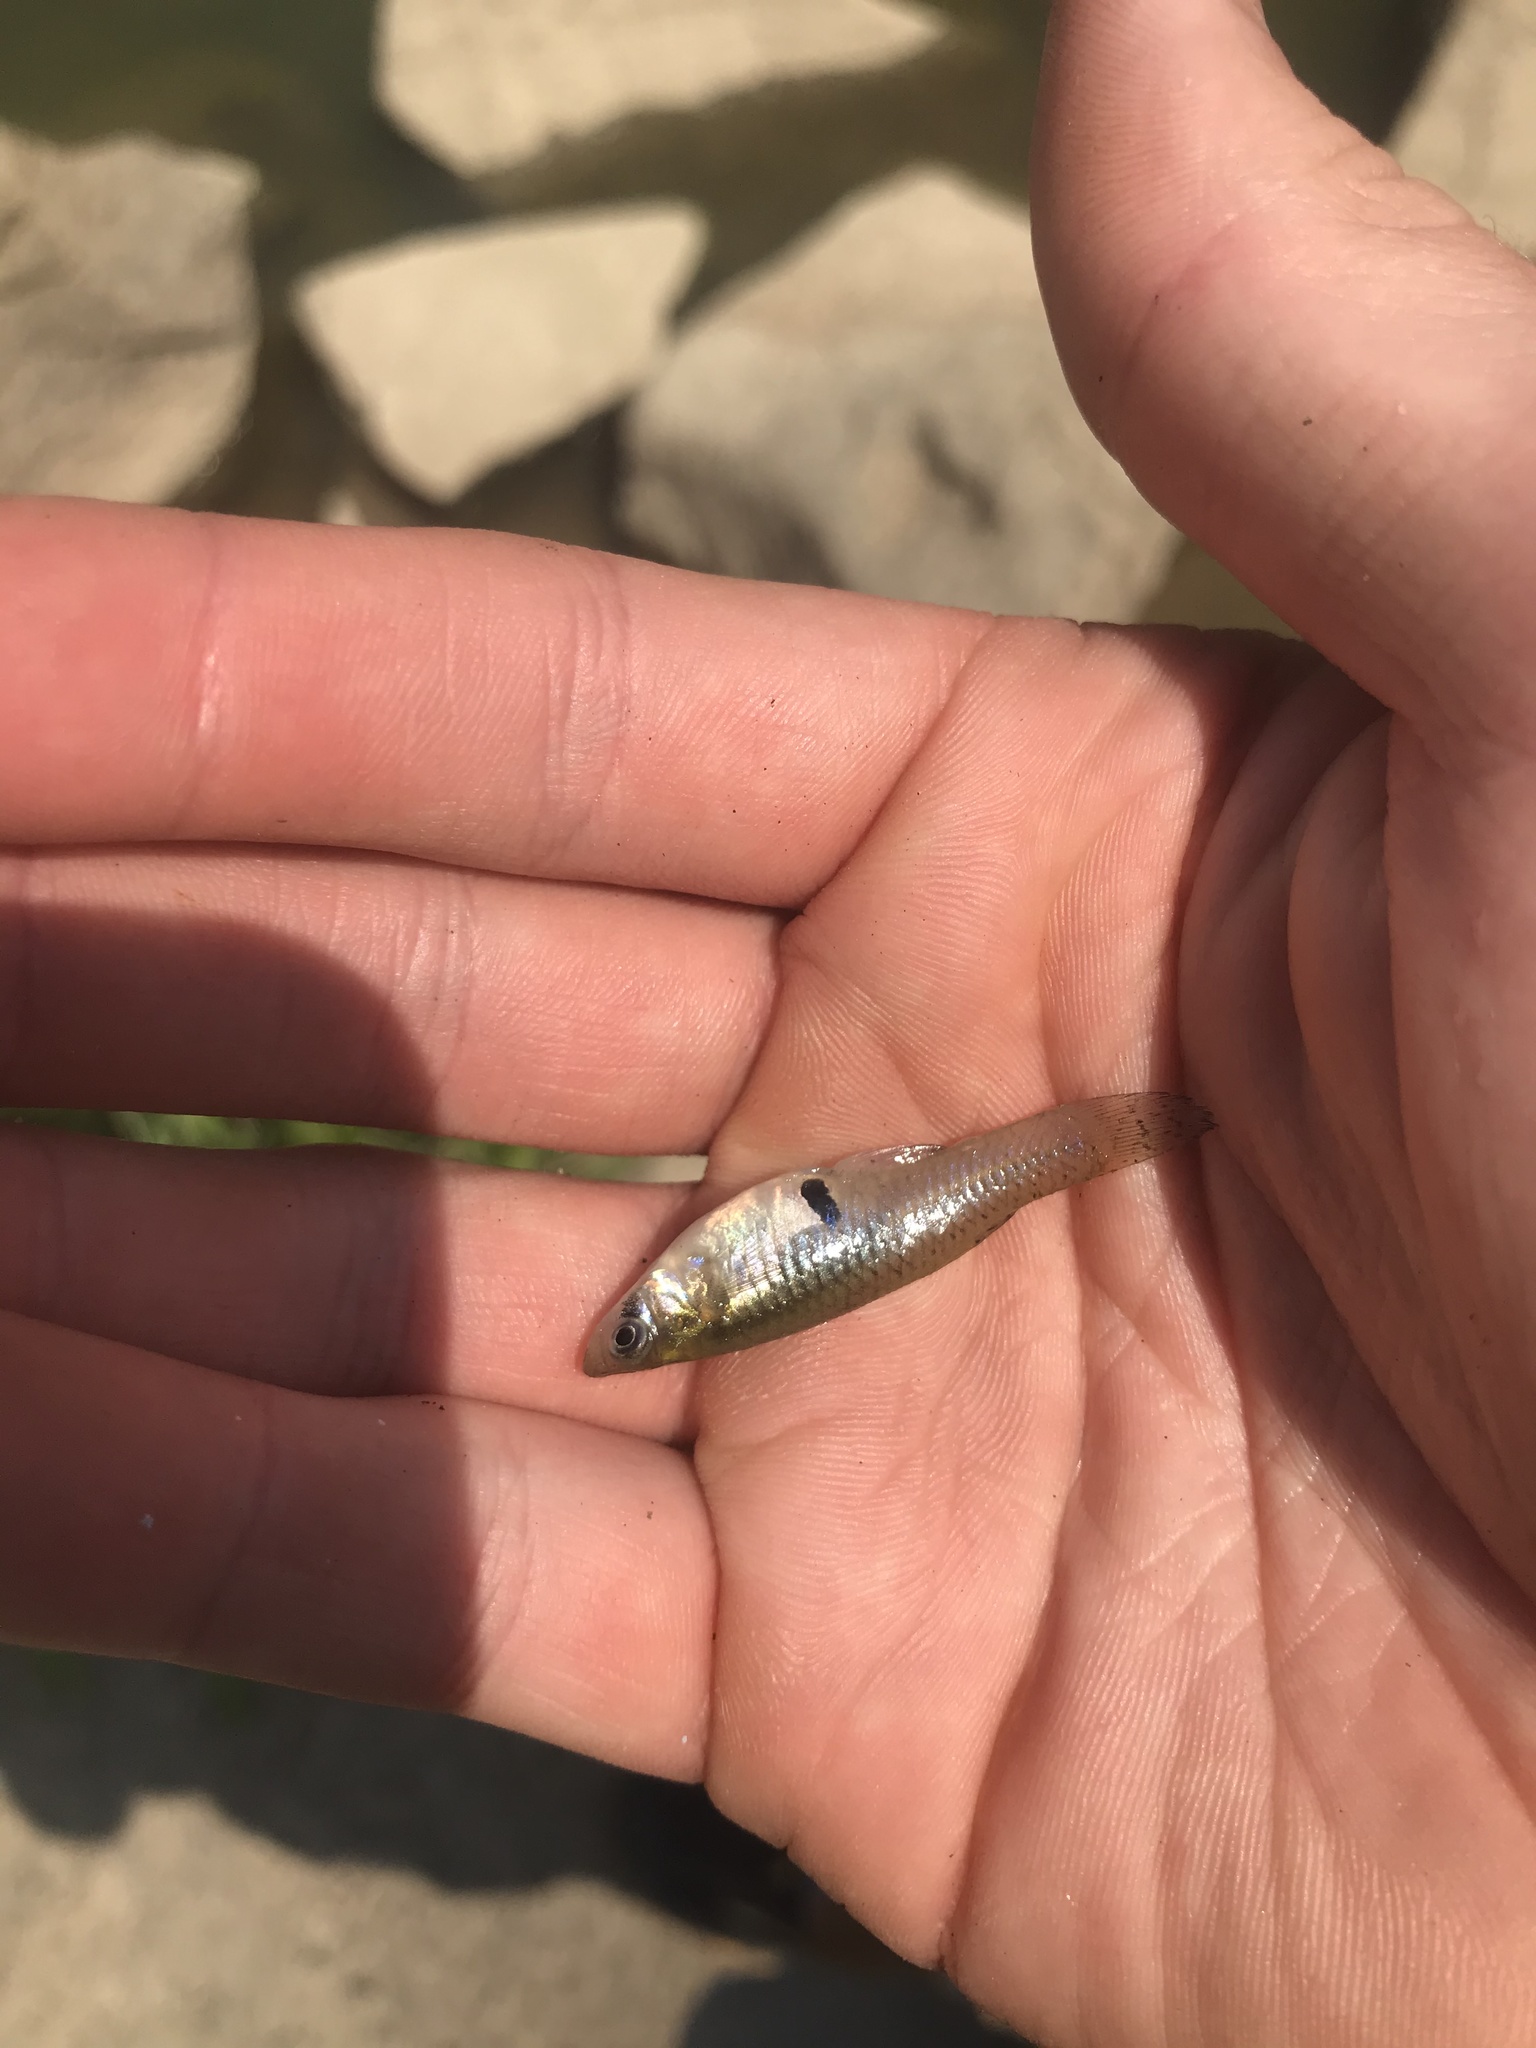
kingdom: Animalia
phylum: Chordata
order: Cyprinodontiformes
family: Poeciliidae
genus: Gambusia
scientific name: Gambusia holbrooki
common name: Eastern mosquitofish
